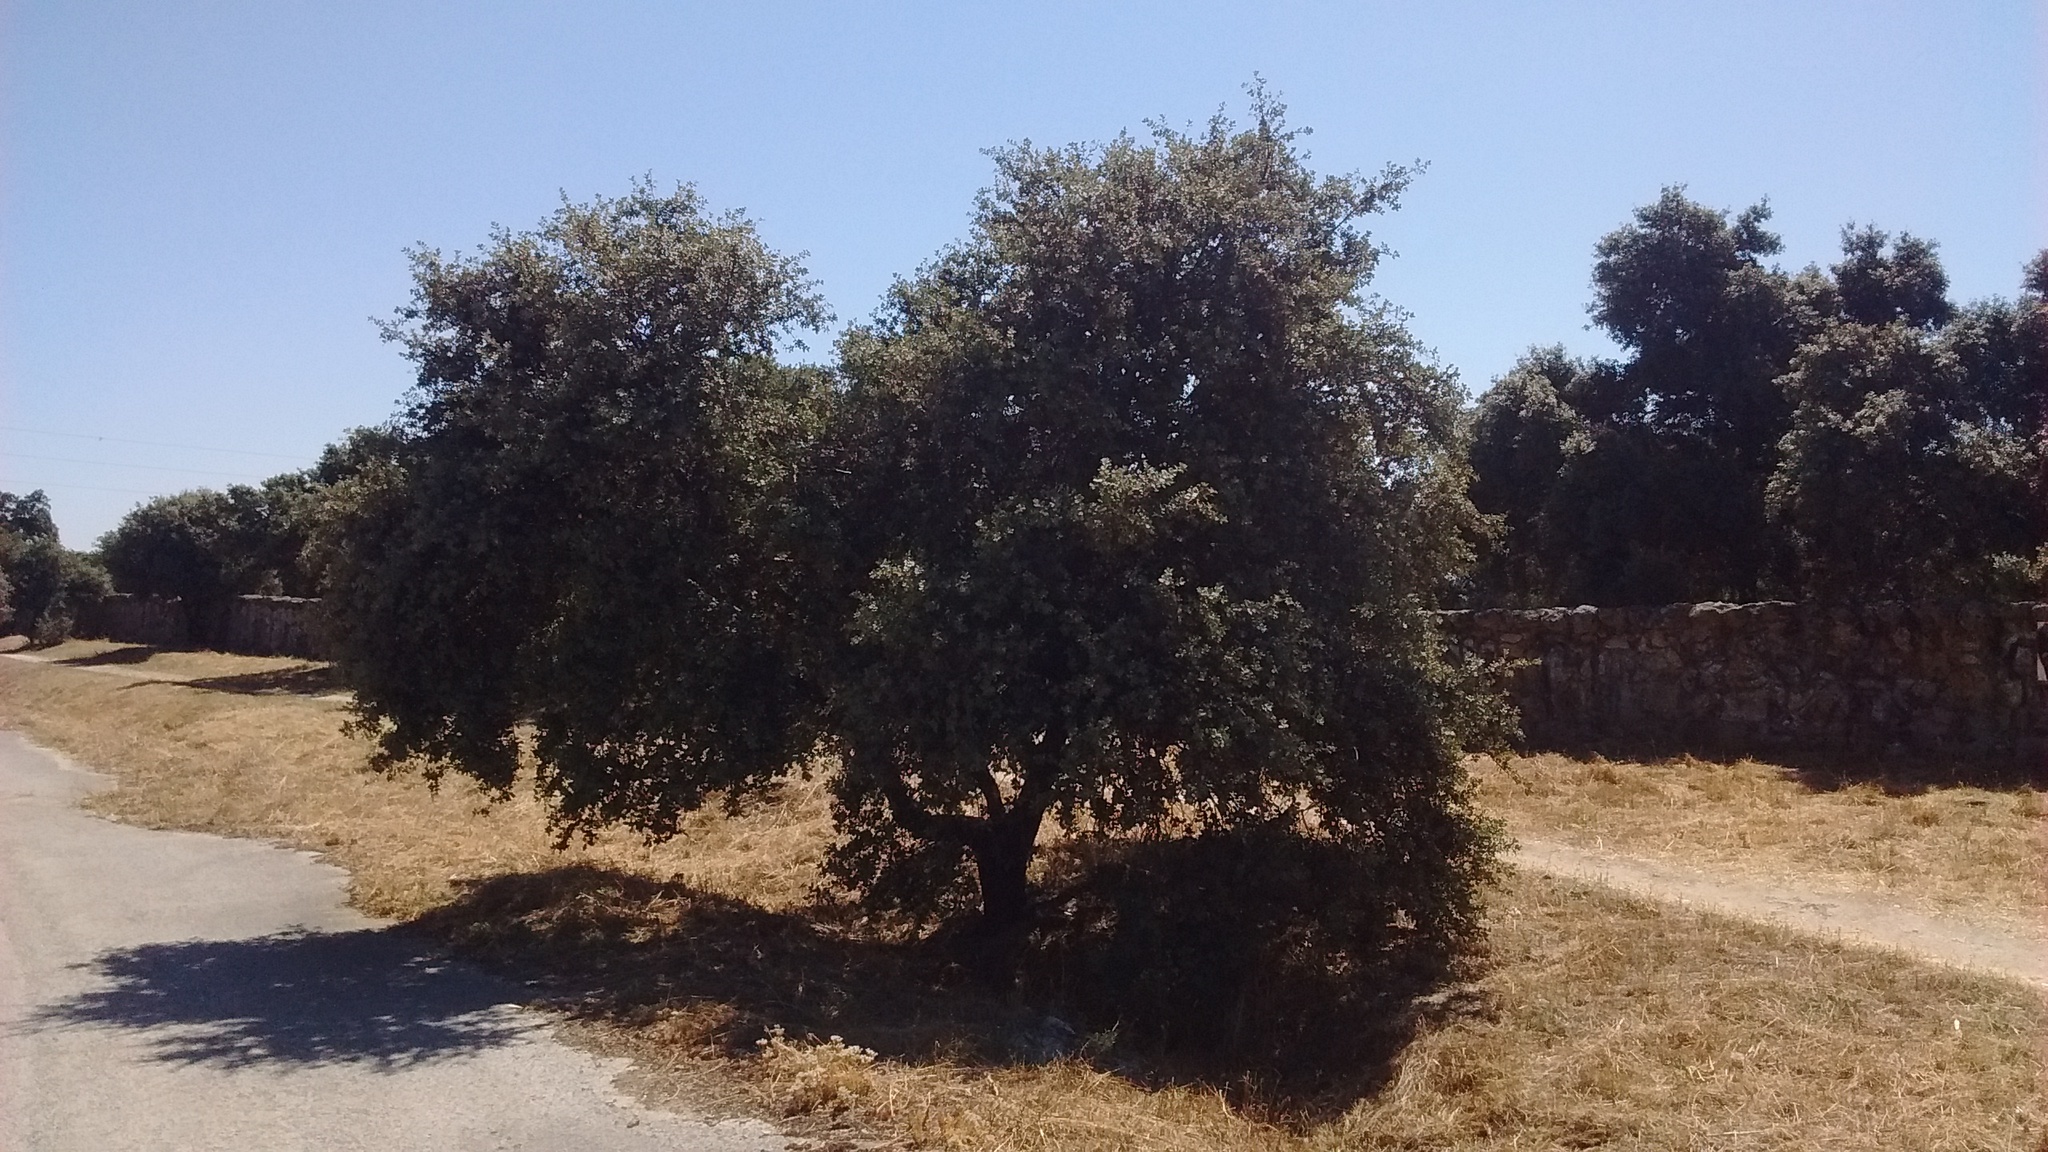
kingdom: Plantae
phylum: Tracheophyta
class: Magnoliopsida
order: Fagales
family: Fagaceae
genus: Quercus
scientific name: Quercus rotundifolia
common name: Holm oak
